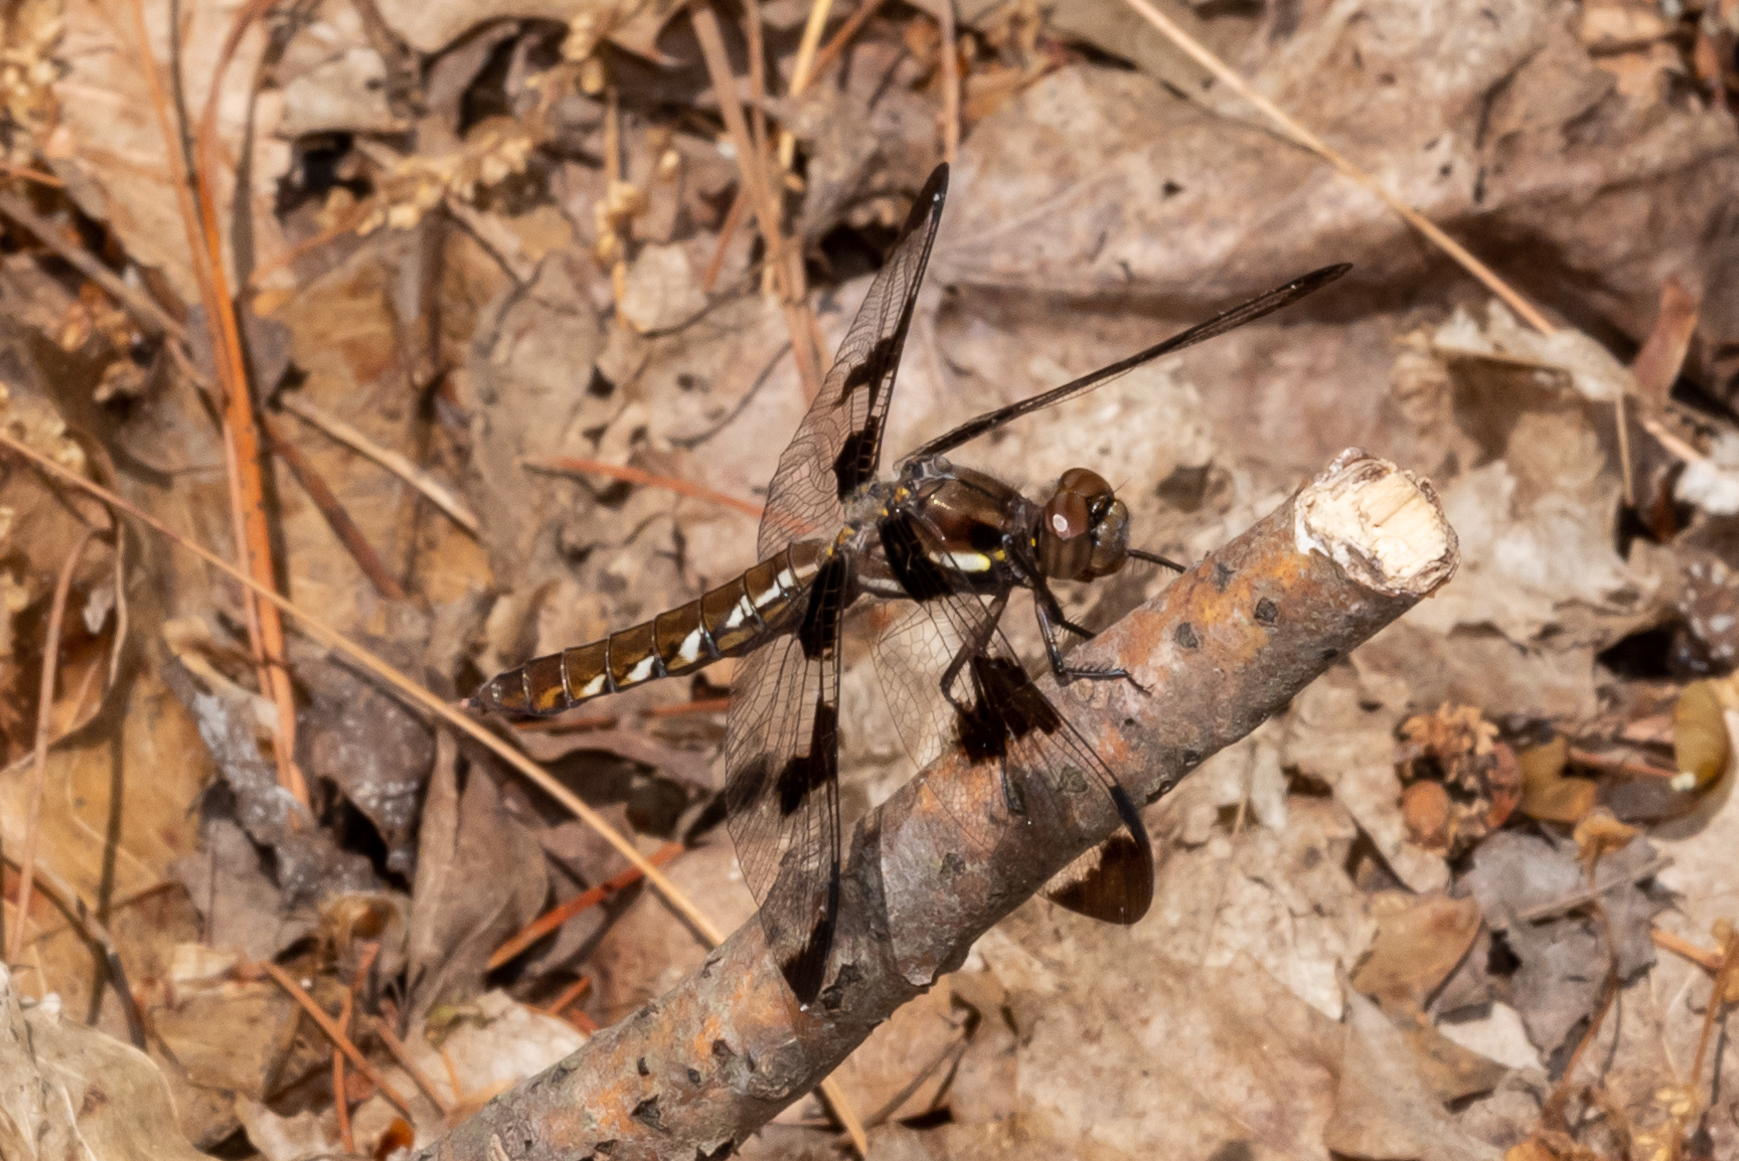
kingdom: Animalia
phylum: Arthropoda
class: Insecta
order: Odonata
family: Libellulidae
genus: Plathemis
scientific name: Plathemis lydia
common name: Common whitetail
